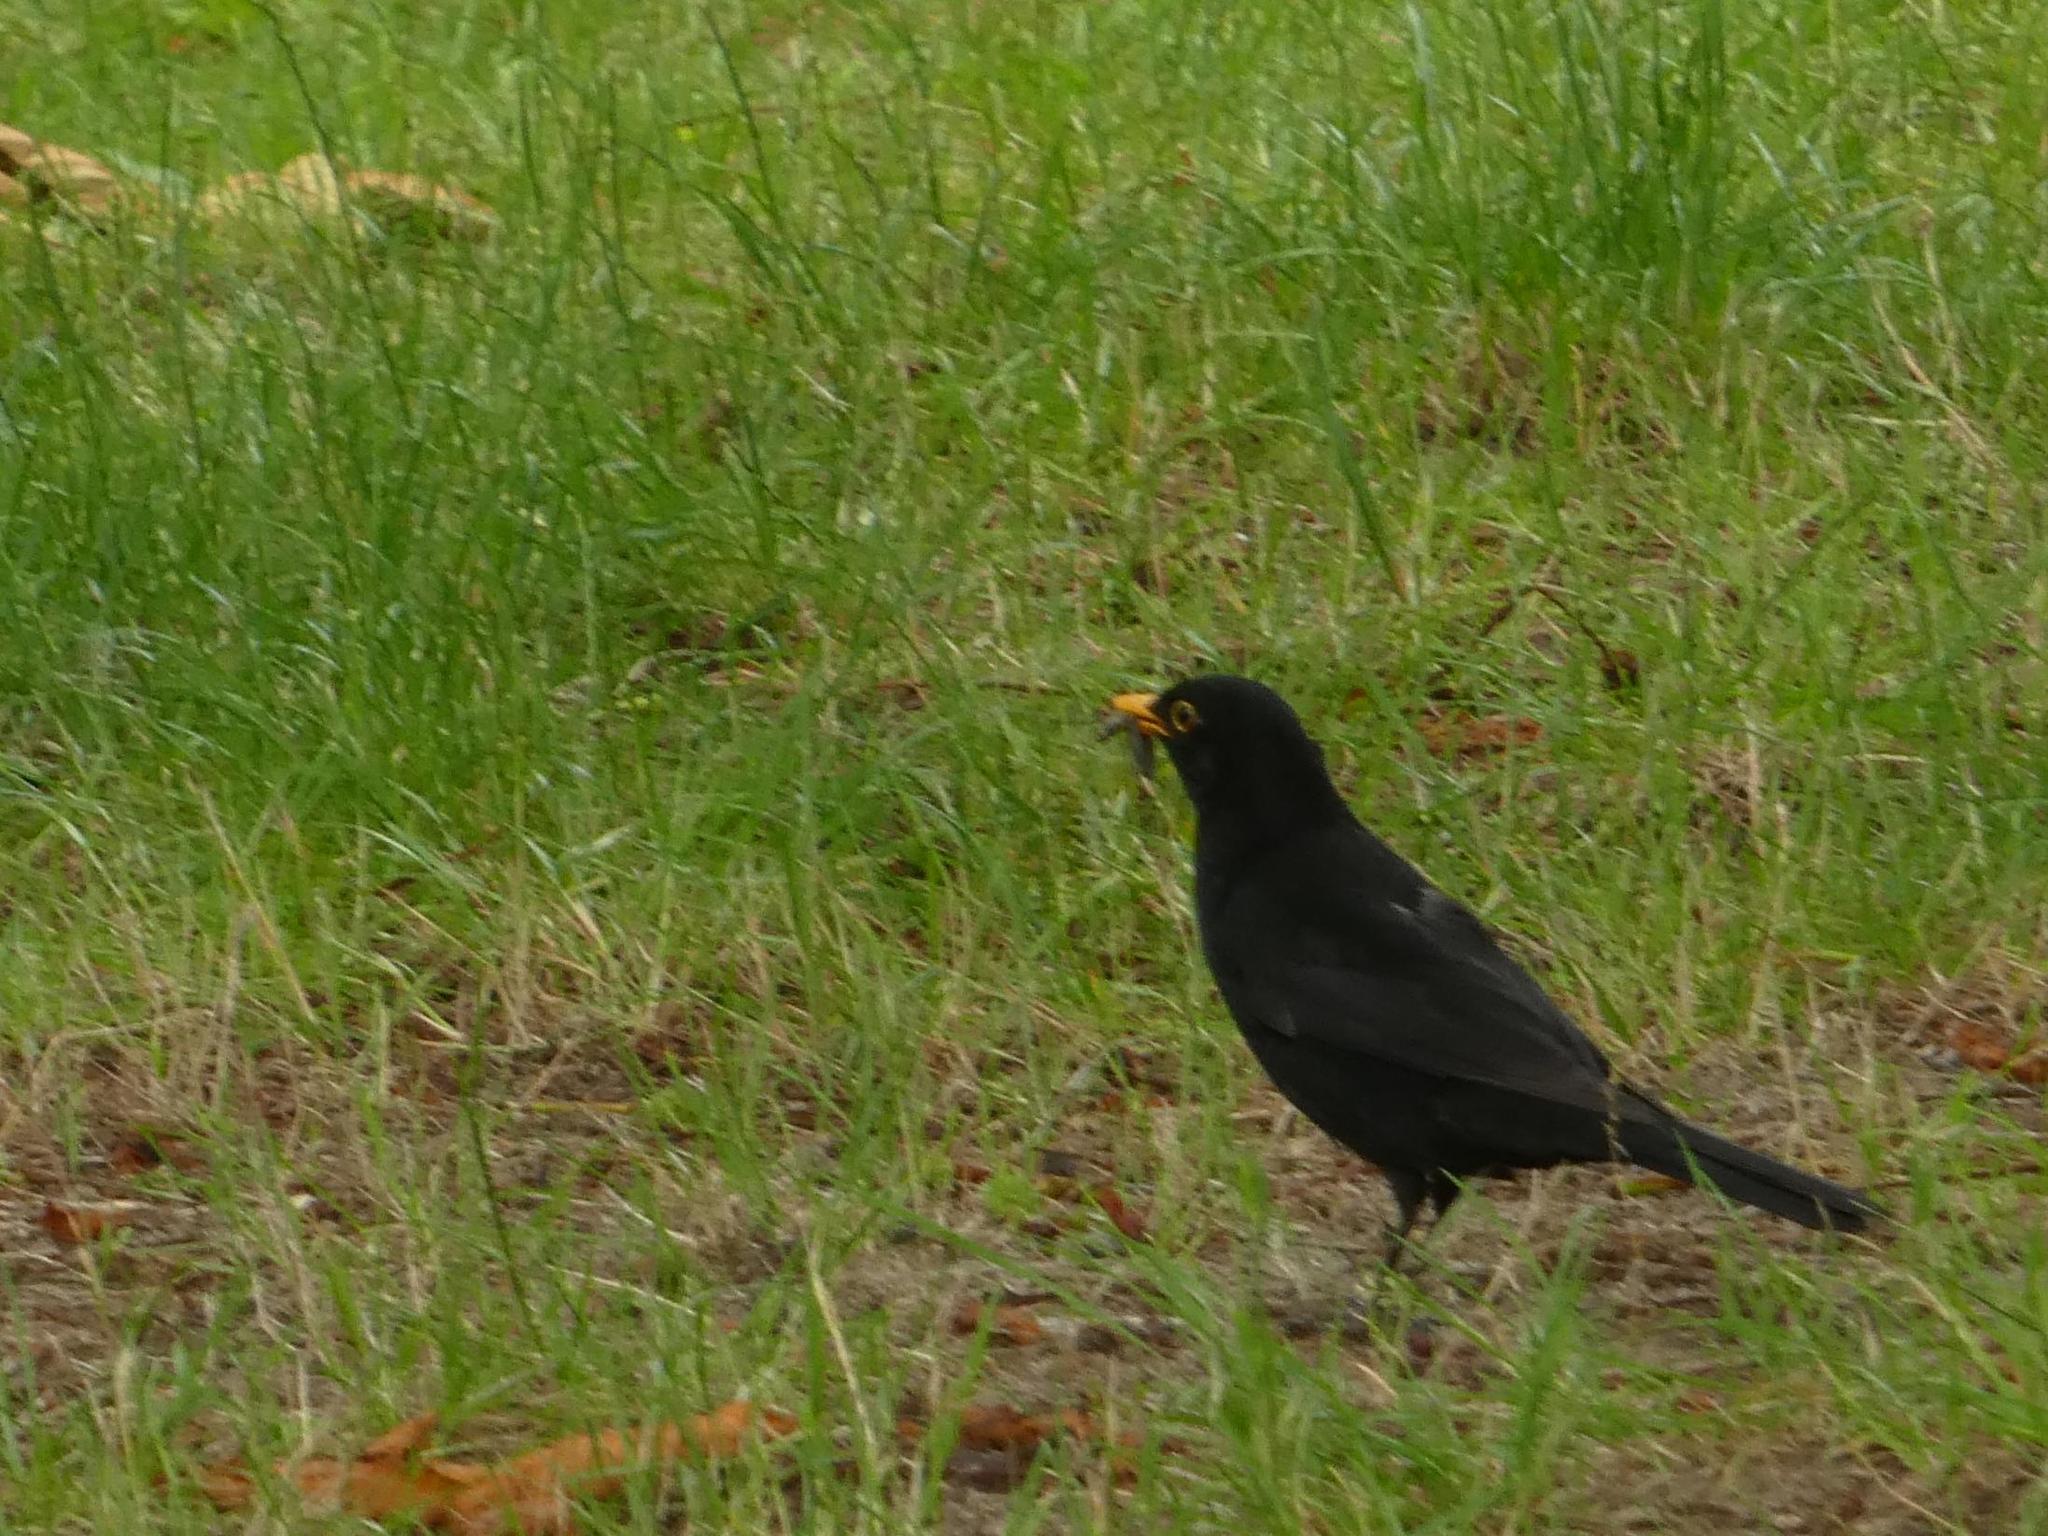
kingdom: Animalia
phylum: Chordata
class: Aves
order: Passeriformes
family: Turdidae
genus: Turdus
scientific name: Turdus merula
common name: Common blackbird
